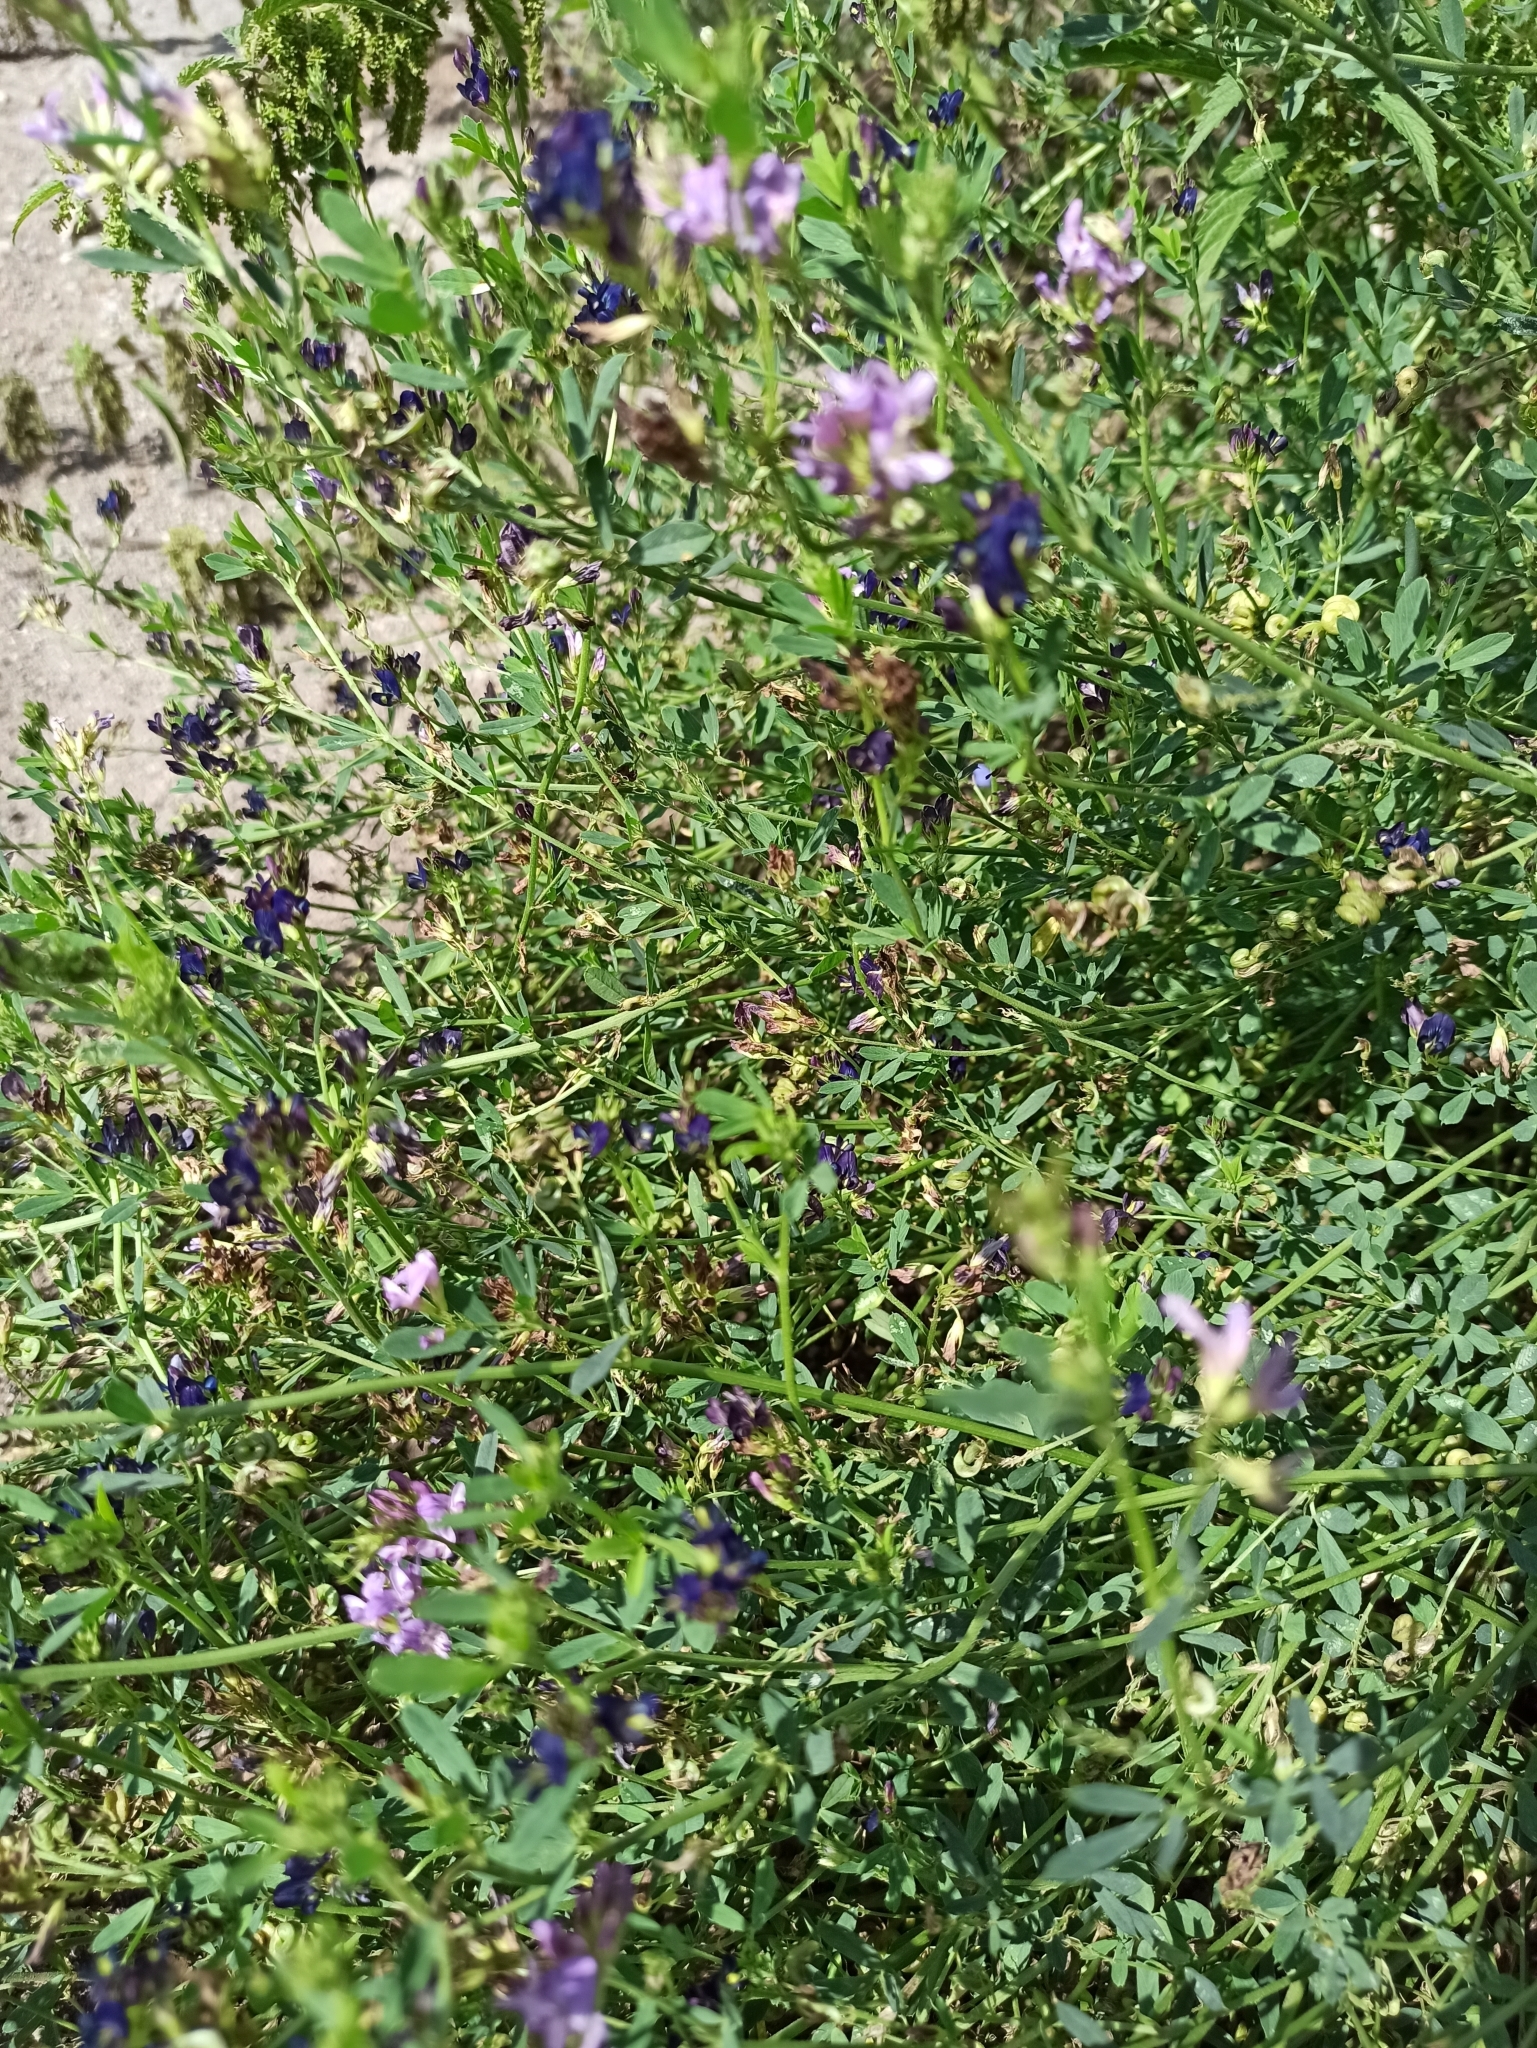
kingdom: Plantae
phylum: Tracheophyta
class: Magnoliopsida
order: Fabales
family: Fabaceae
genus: Medicago
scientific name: Medicago varia
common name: Sand lucerne
